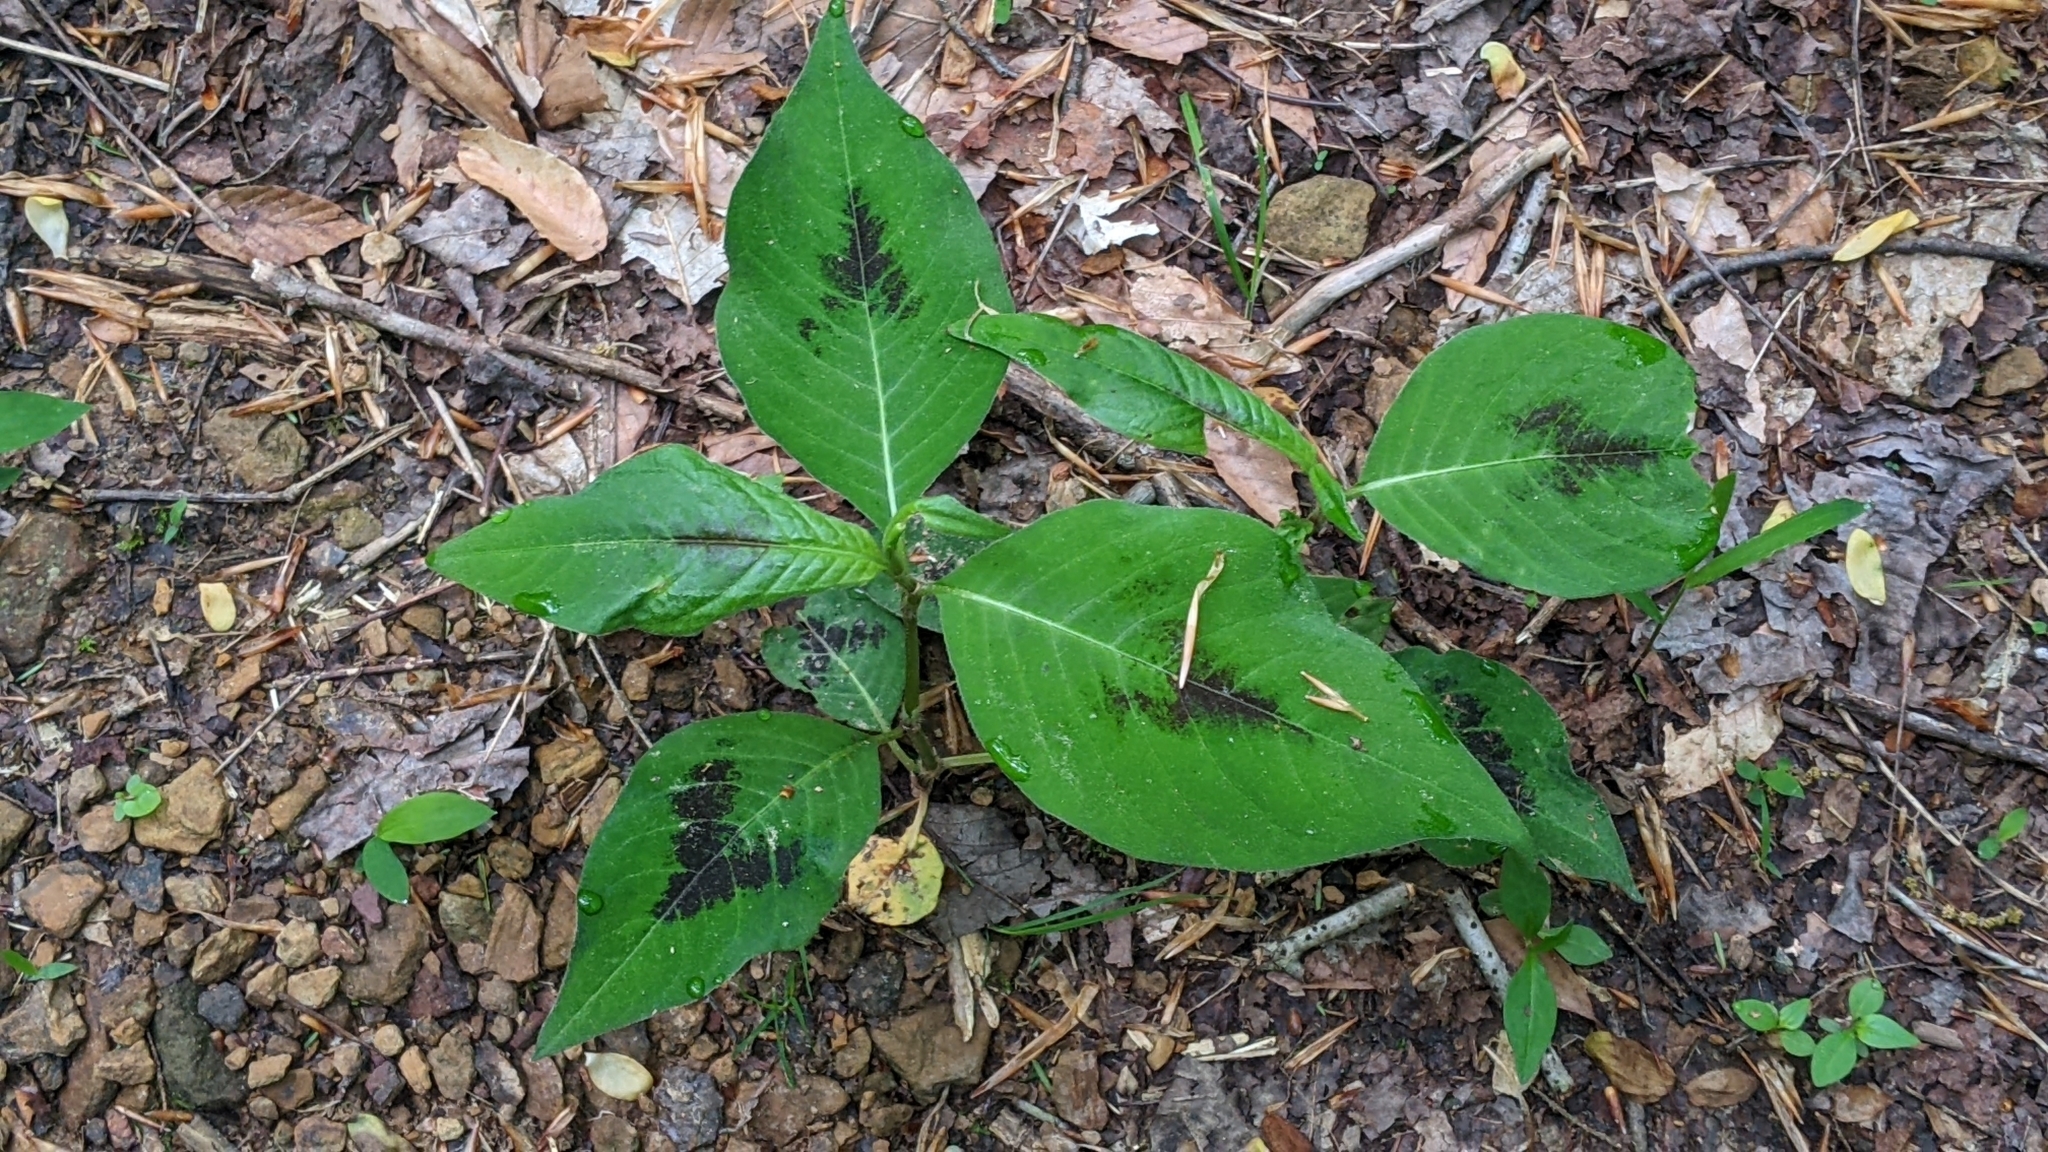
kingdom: Plantae
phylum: Tracheophyta
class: Magnoliopsida
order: Caryophyllales
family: Polygonaceae
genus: Persicaria
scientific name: Persicaria virginiana
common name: Jumpseed
